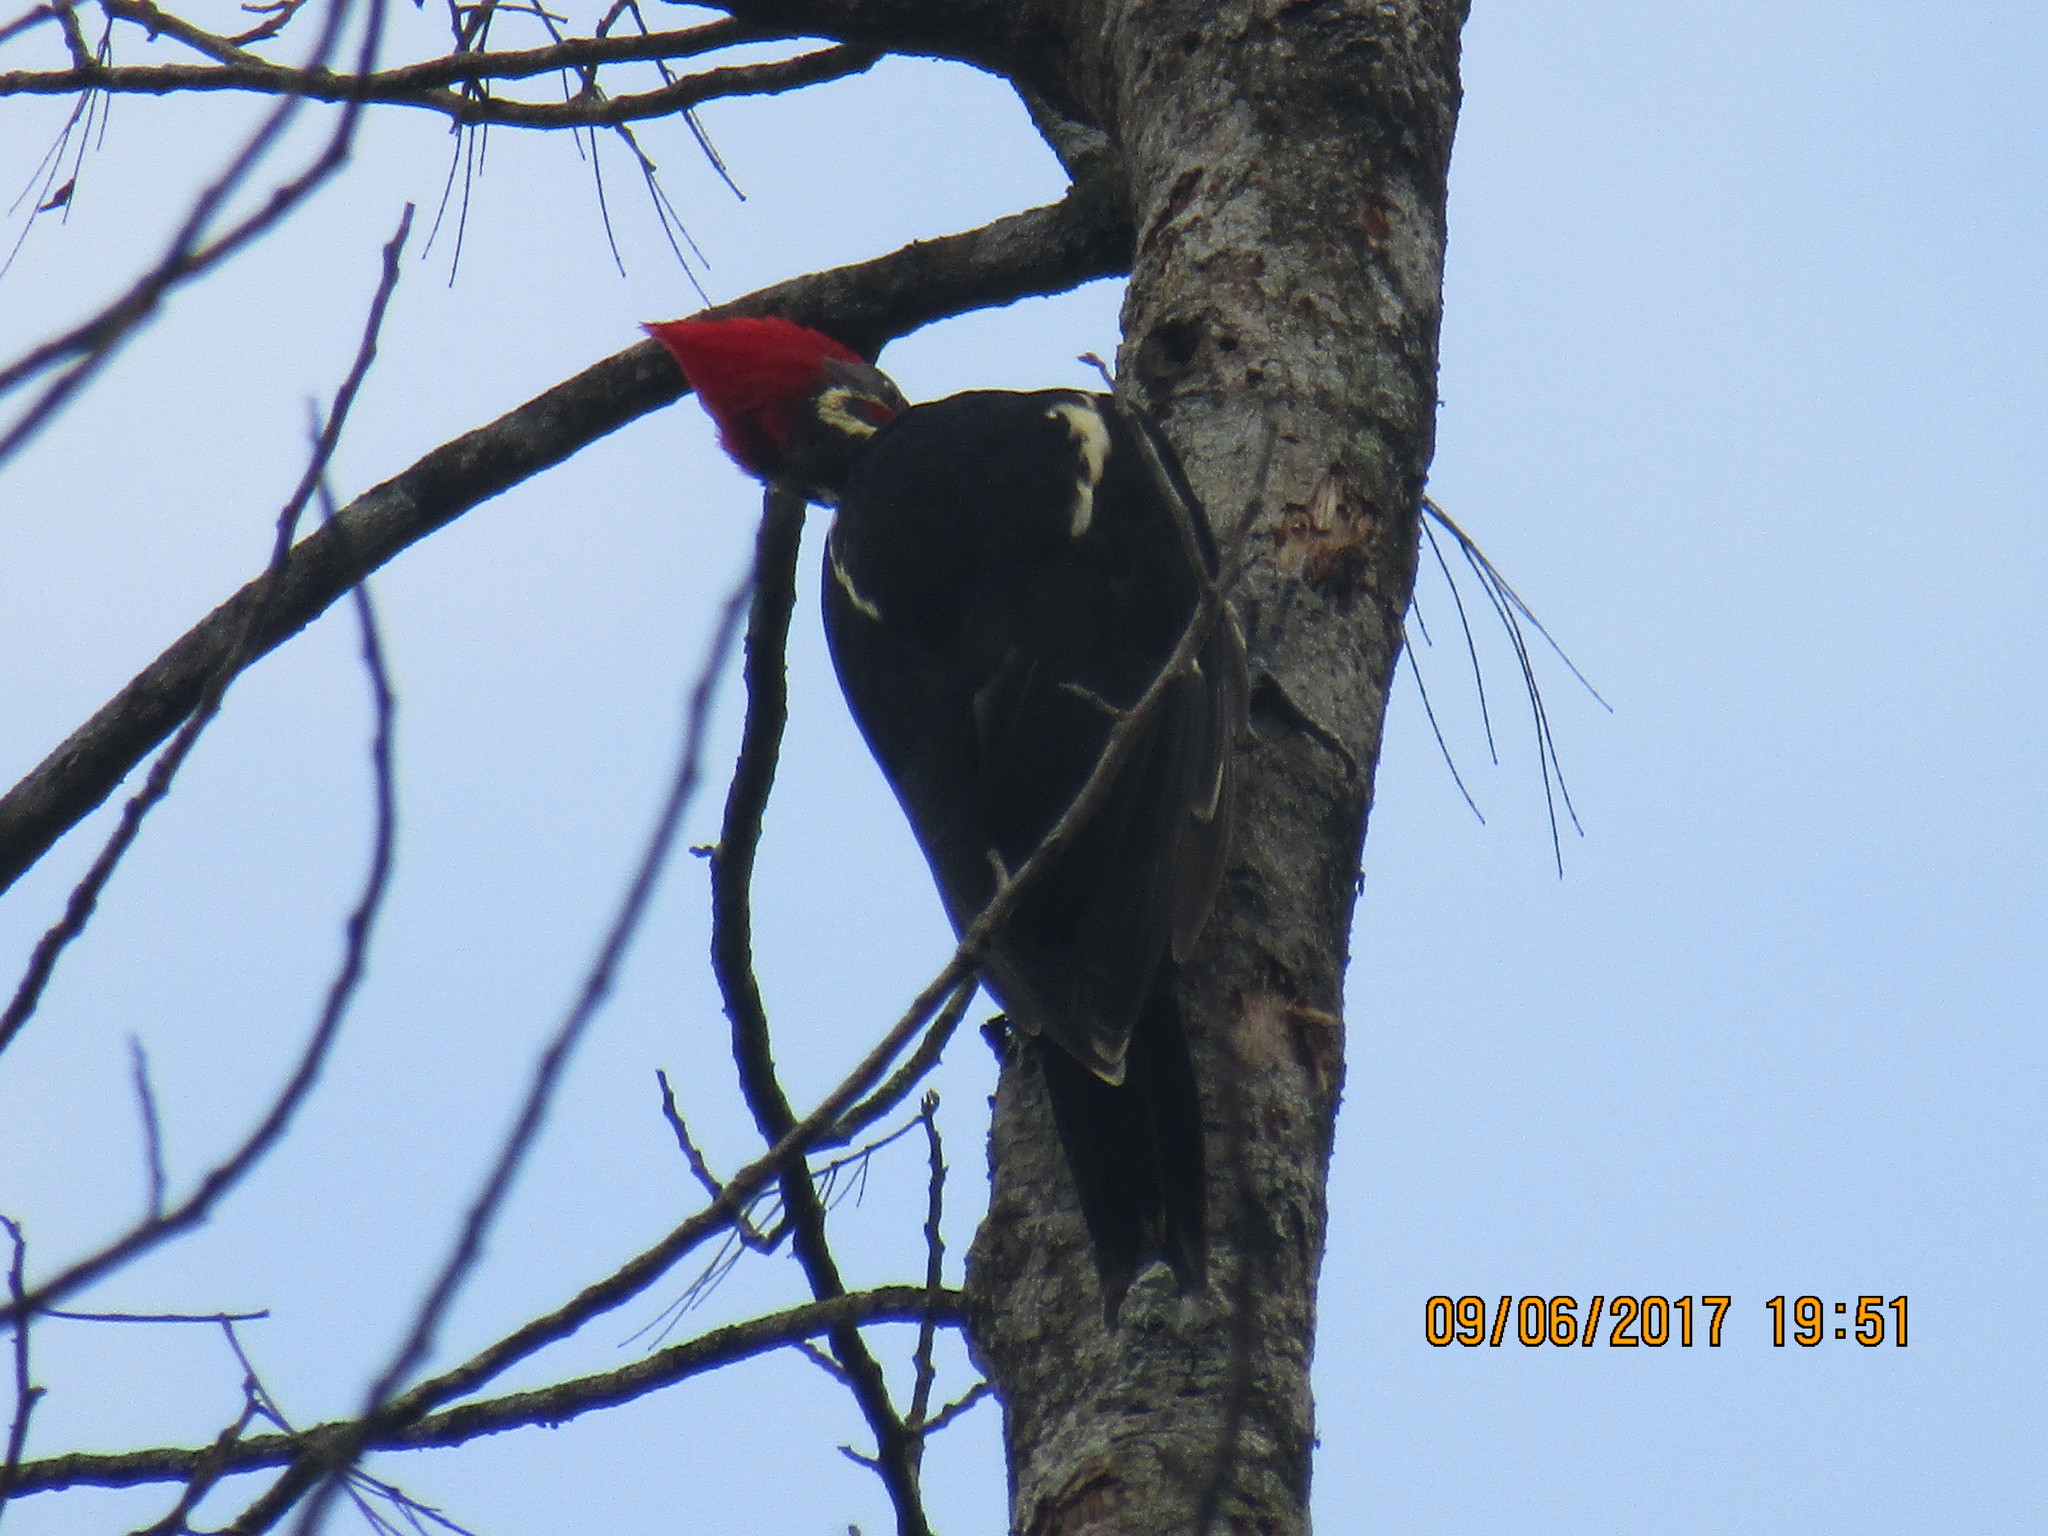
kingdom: Animalia
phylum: Chordata
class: Aves
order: Piciformes
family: Picidae
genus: Dryocopus
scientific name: Dryocopus lineatus
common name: Lineated woodpecker
